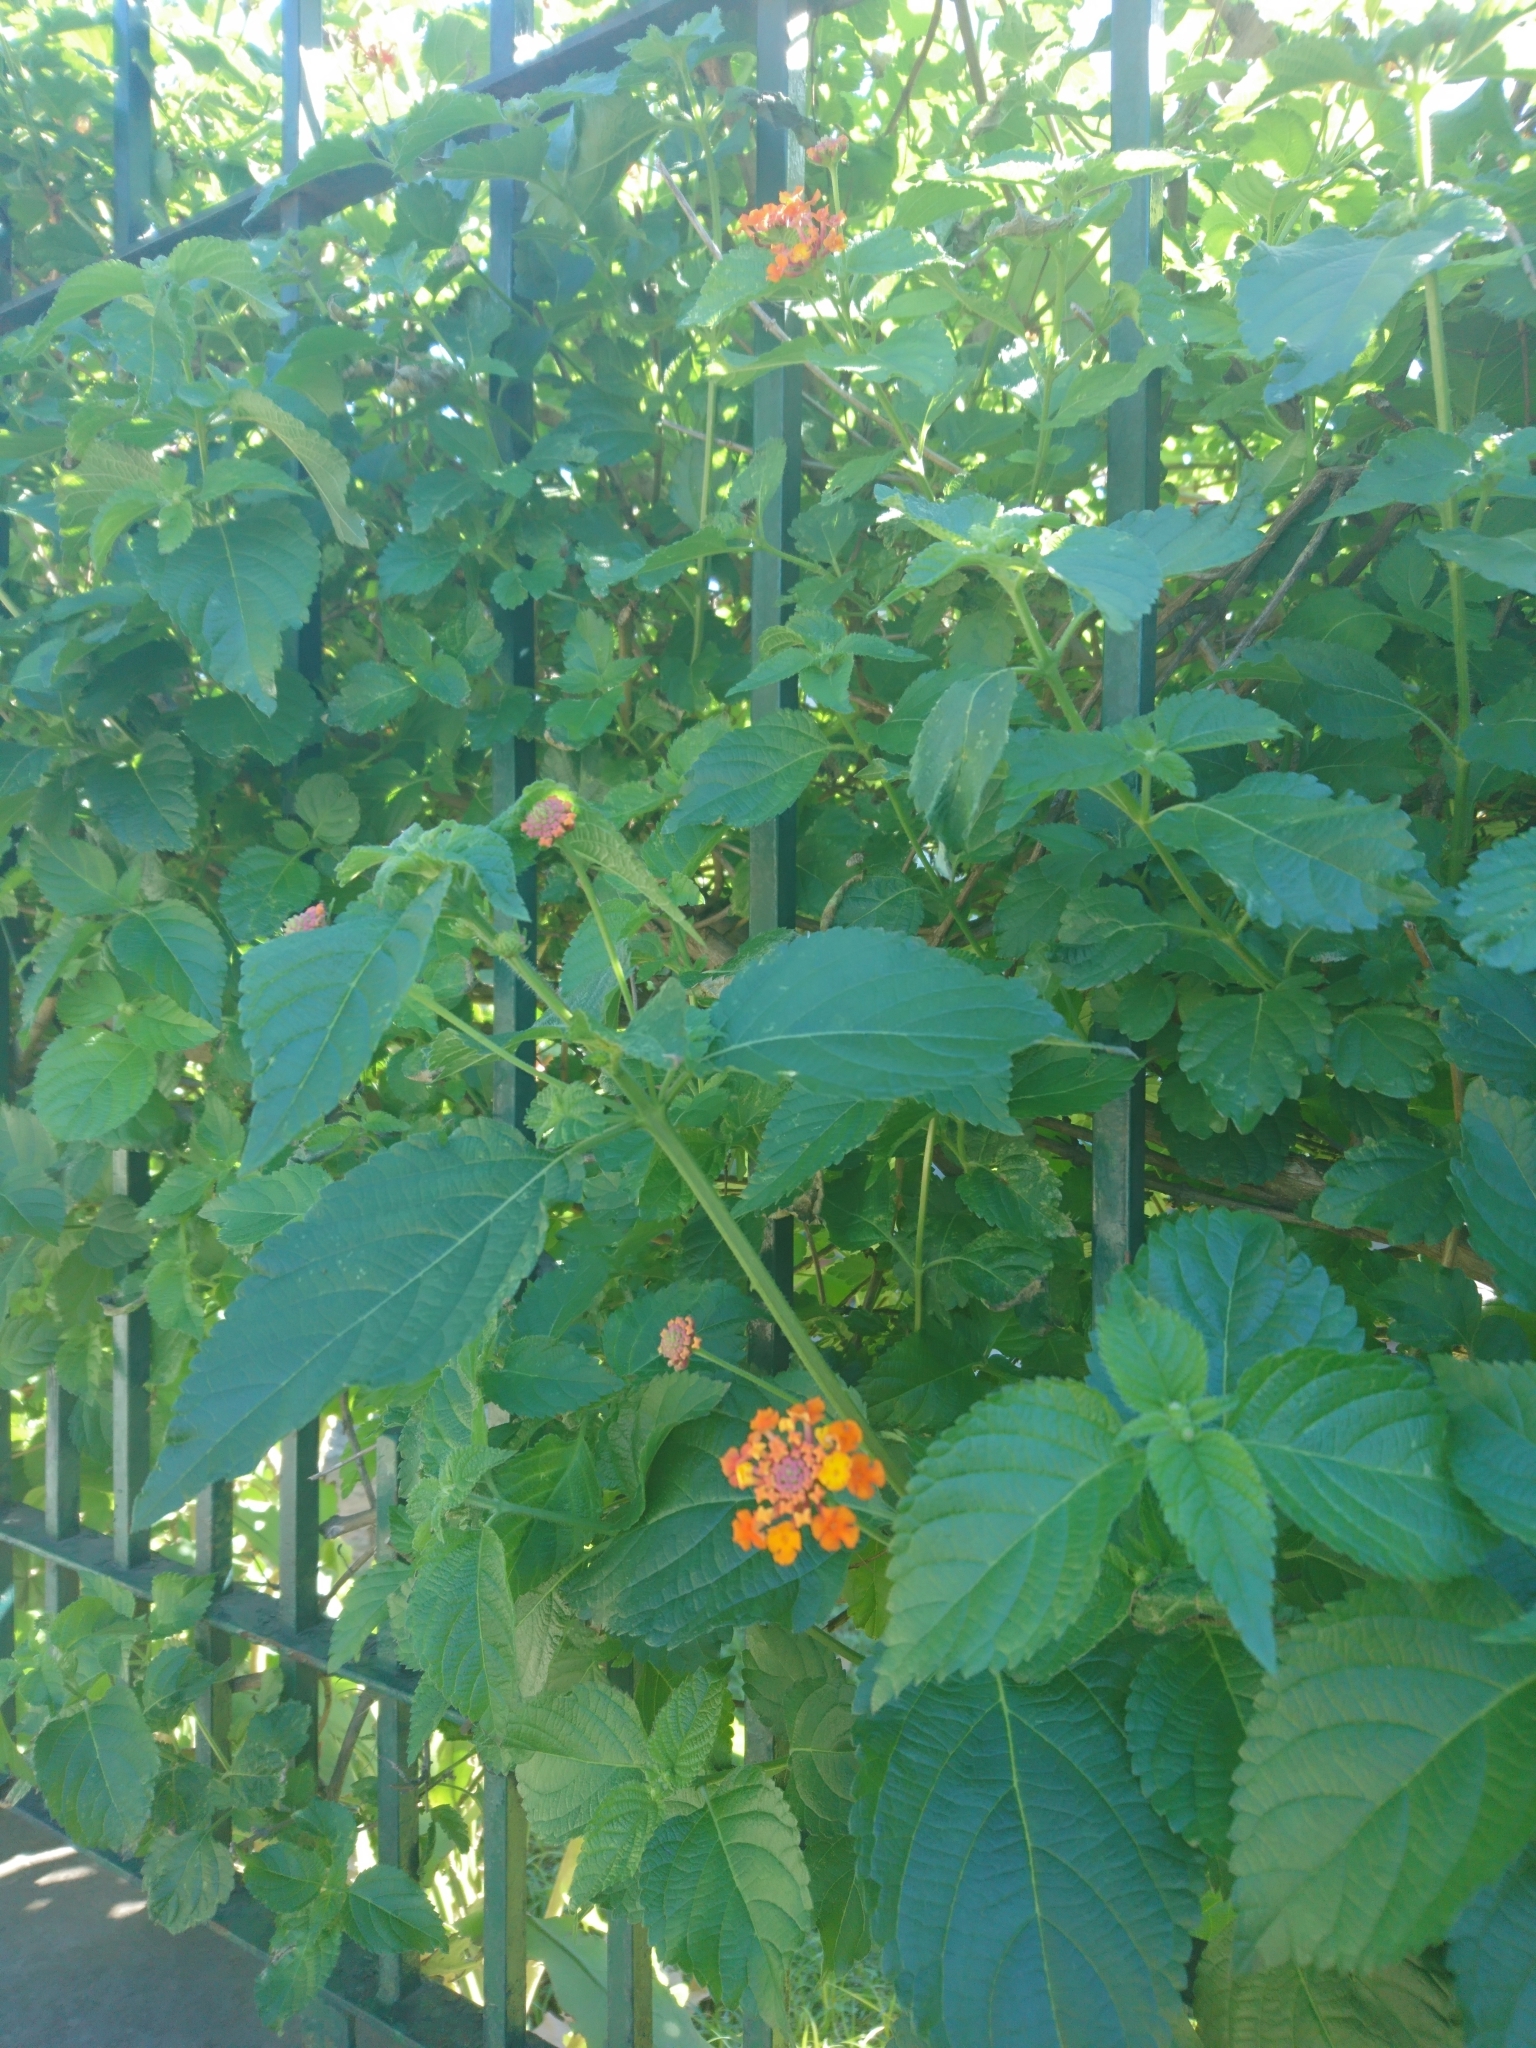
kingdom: Plantae
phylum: Tracheophyta
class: Magnoliopsida
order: Lamiales
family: Verbenaceae
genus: Lantana
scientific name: Lantana camara
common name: Lantana
